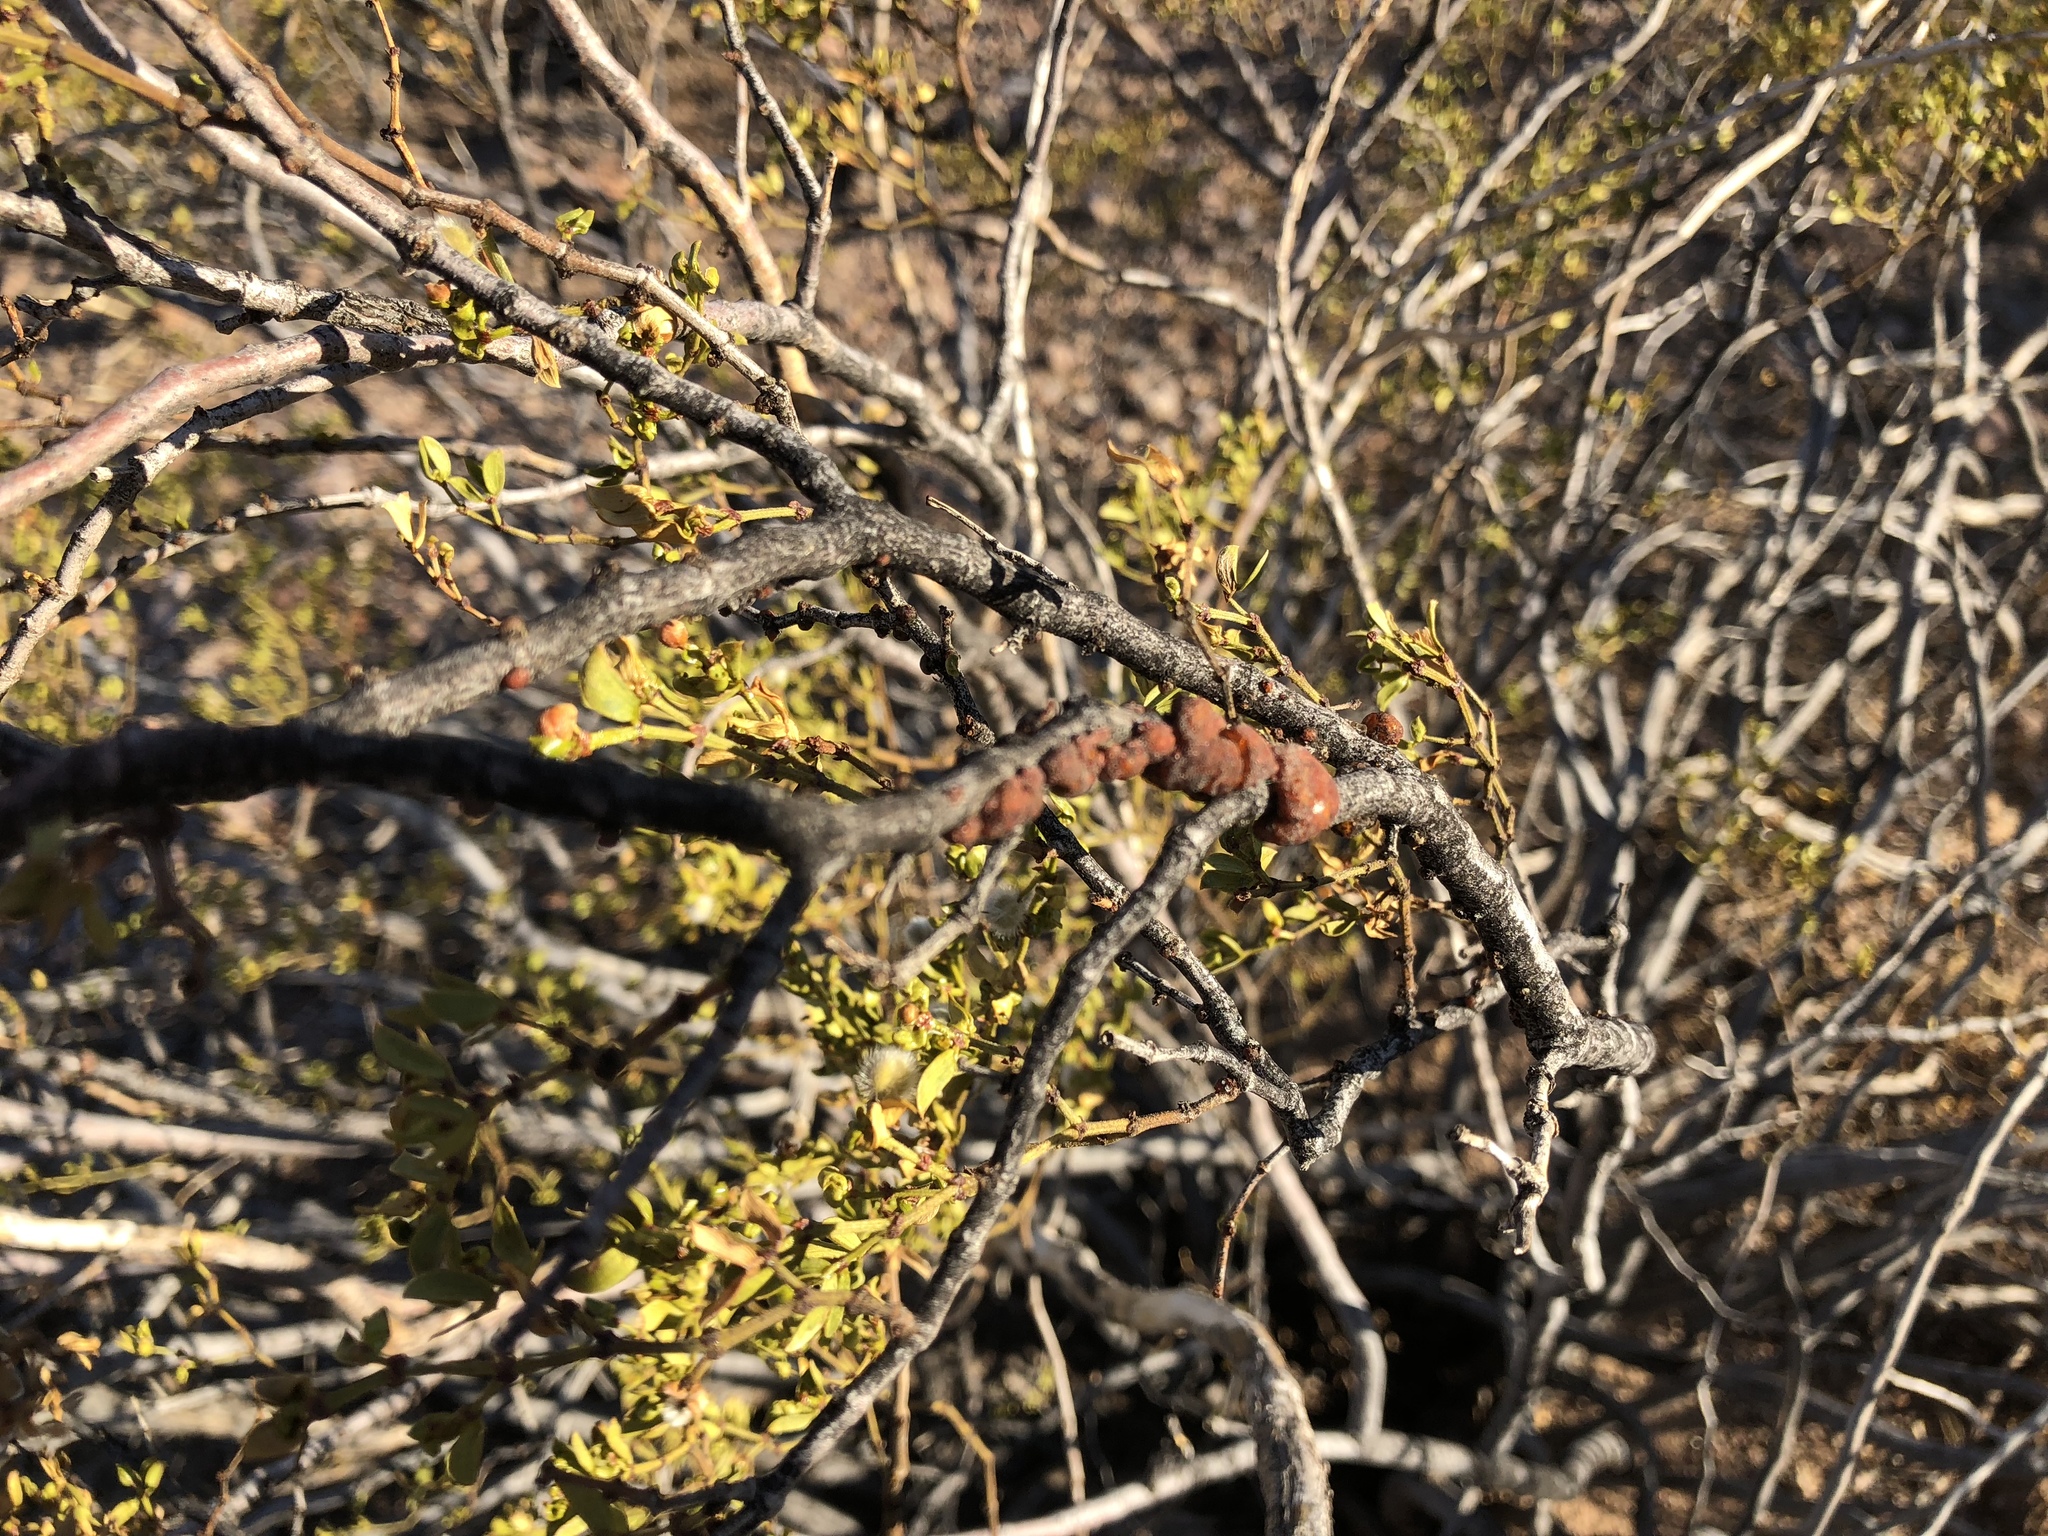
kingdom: Animalia
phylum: Arthropoda
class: Insecta
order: Hemiptera
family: Kerriidae
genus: Tachardiella
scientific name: Tachardiella larreae
